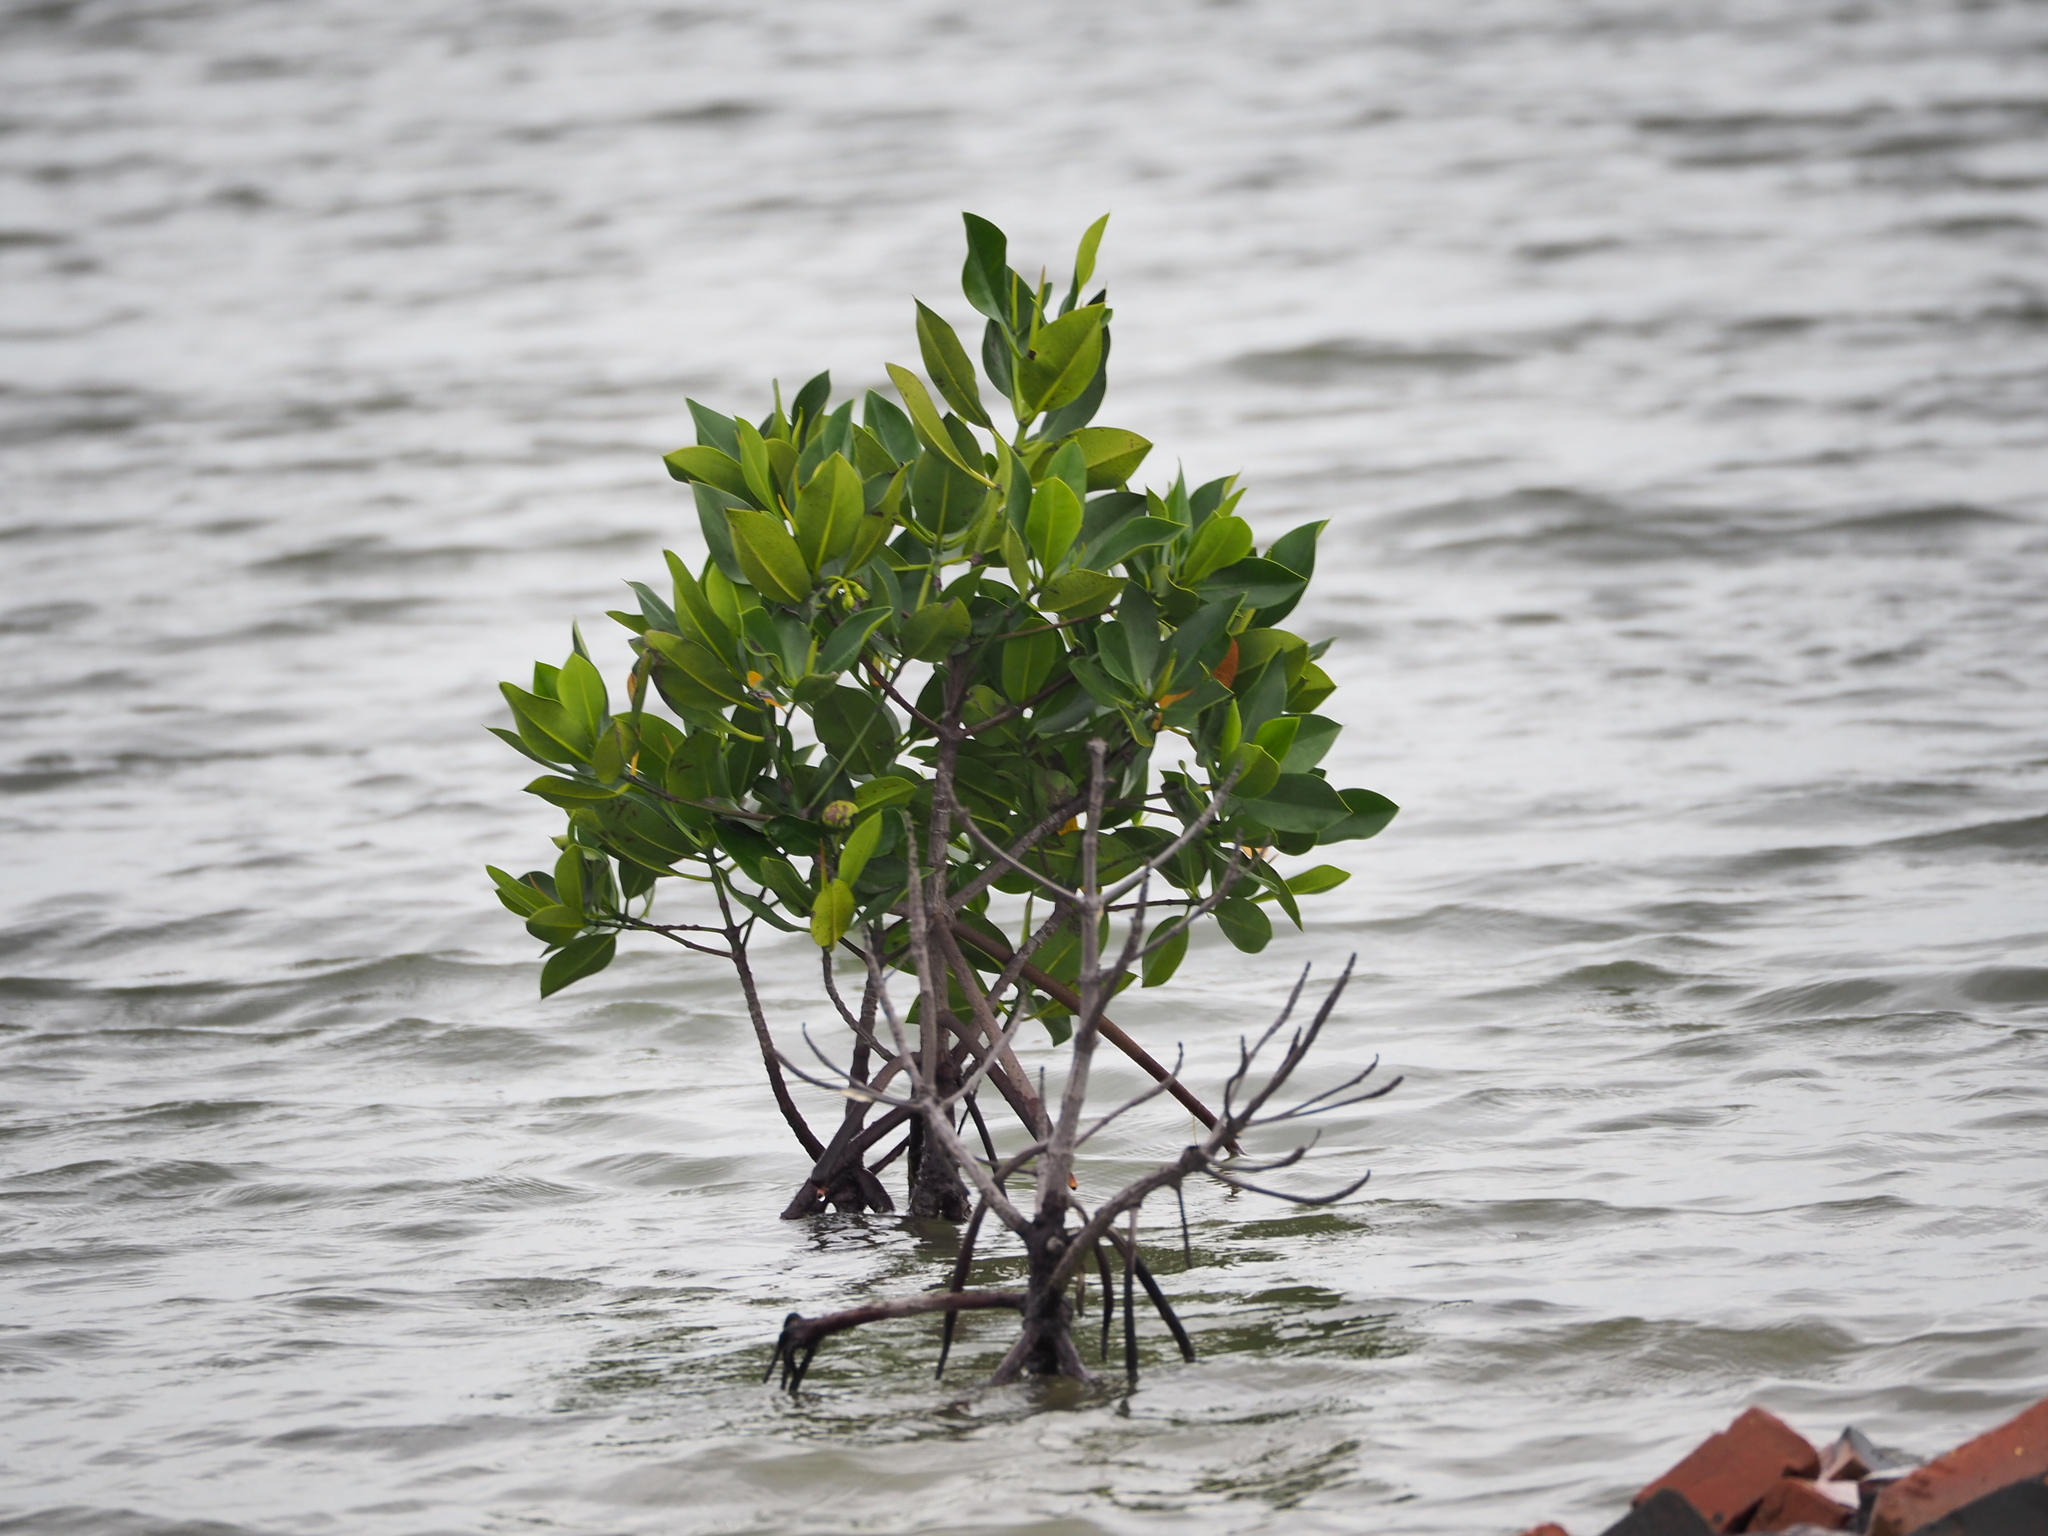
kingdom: Plantae
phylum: Tracheophyta
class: Magnoliopsida
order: Malpighiales
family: Rhizophoraceae
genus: Rhizophora
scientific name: Rhizophora stylosa
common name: Red mangrove
